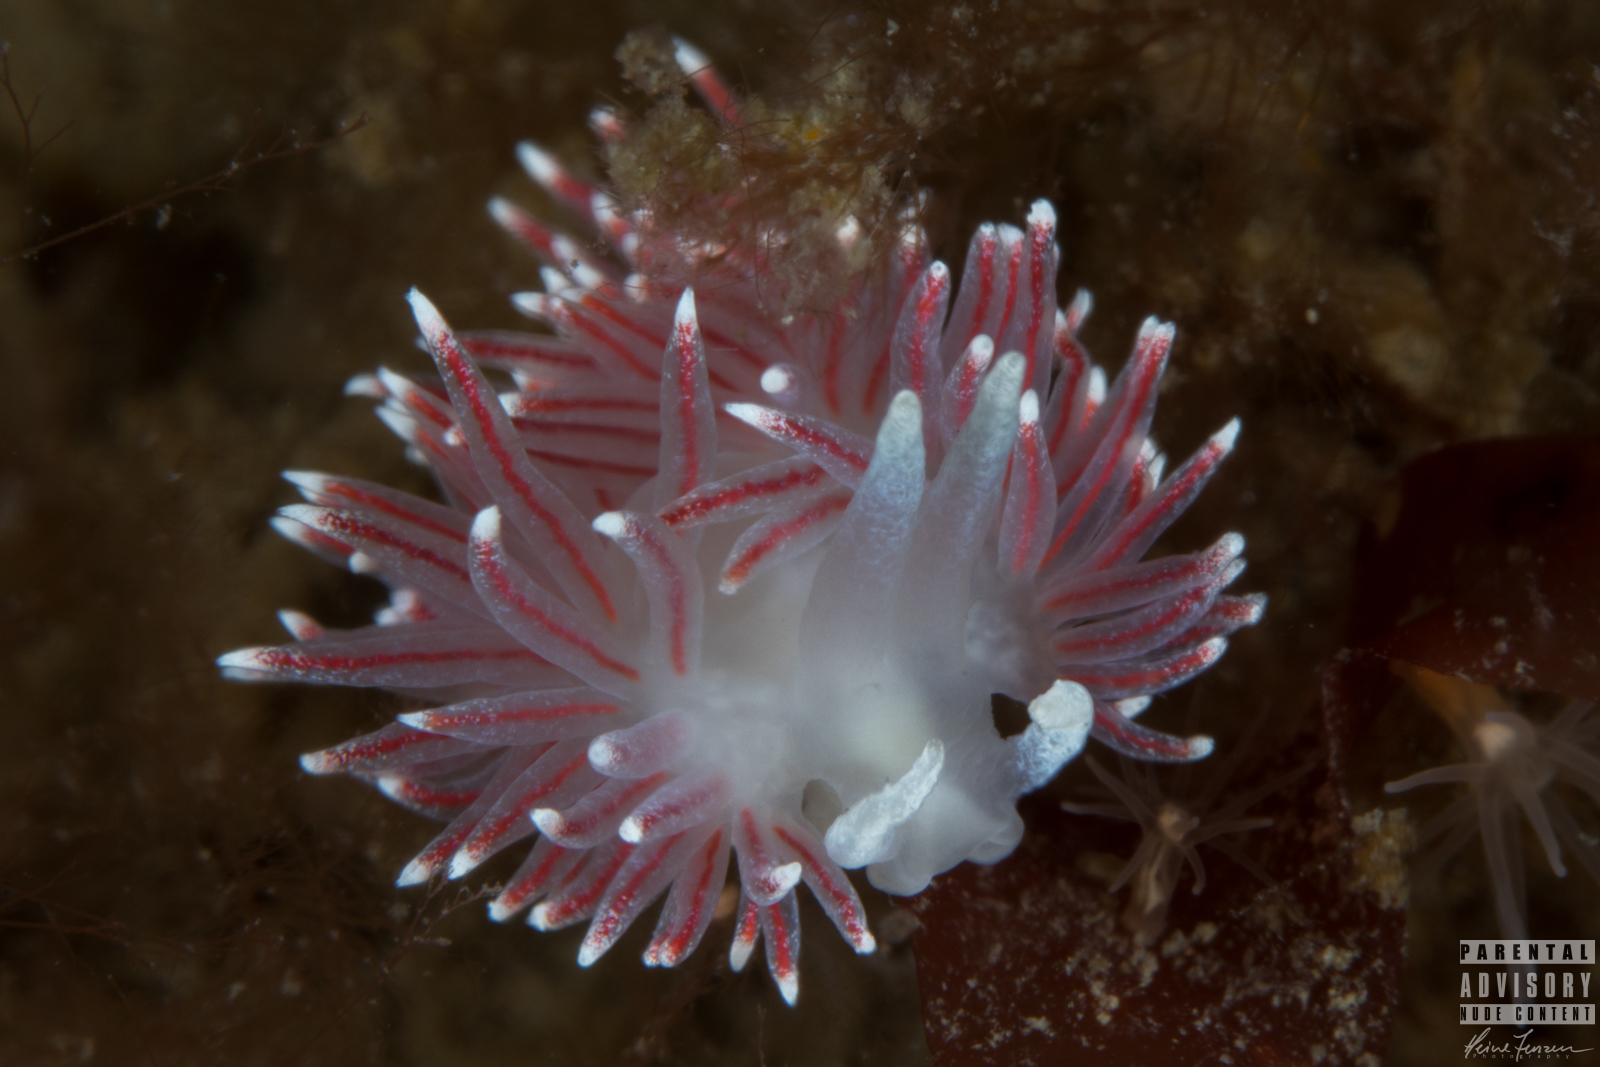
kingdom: Animalia
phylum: Mollusca
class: Gastropoda
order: Nudibranchia
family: Flabellinidae
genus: Carronella
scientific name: Carronella pellucida
